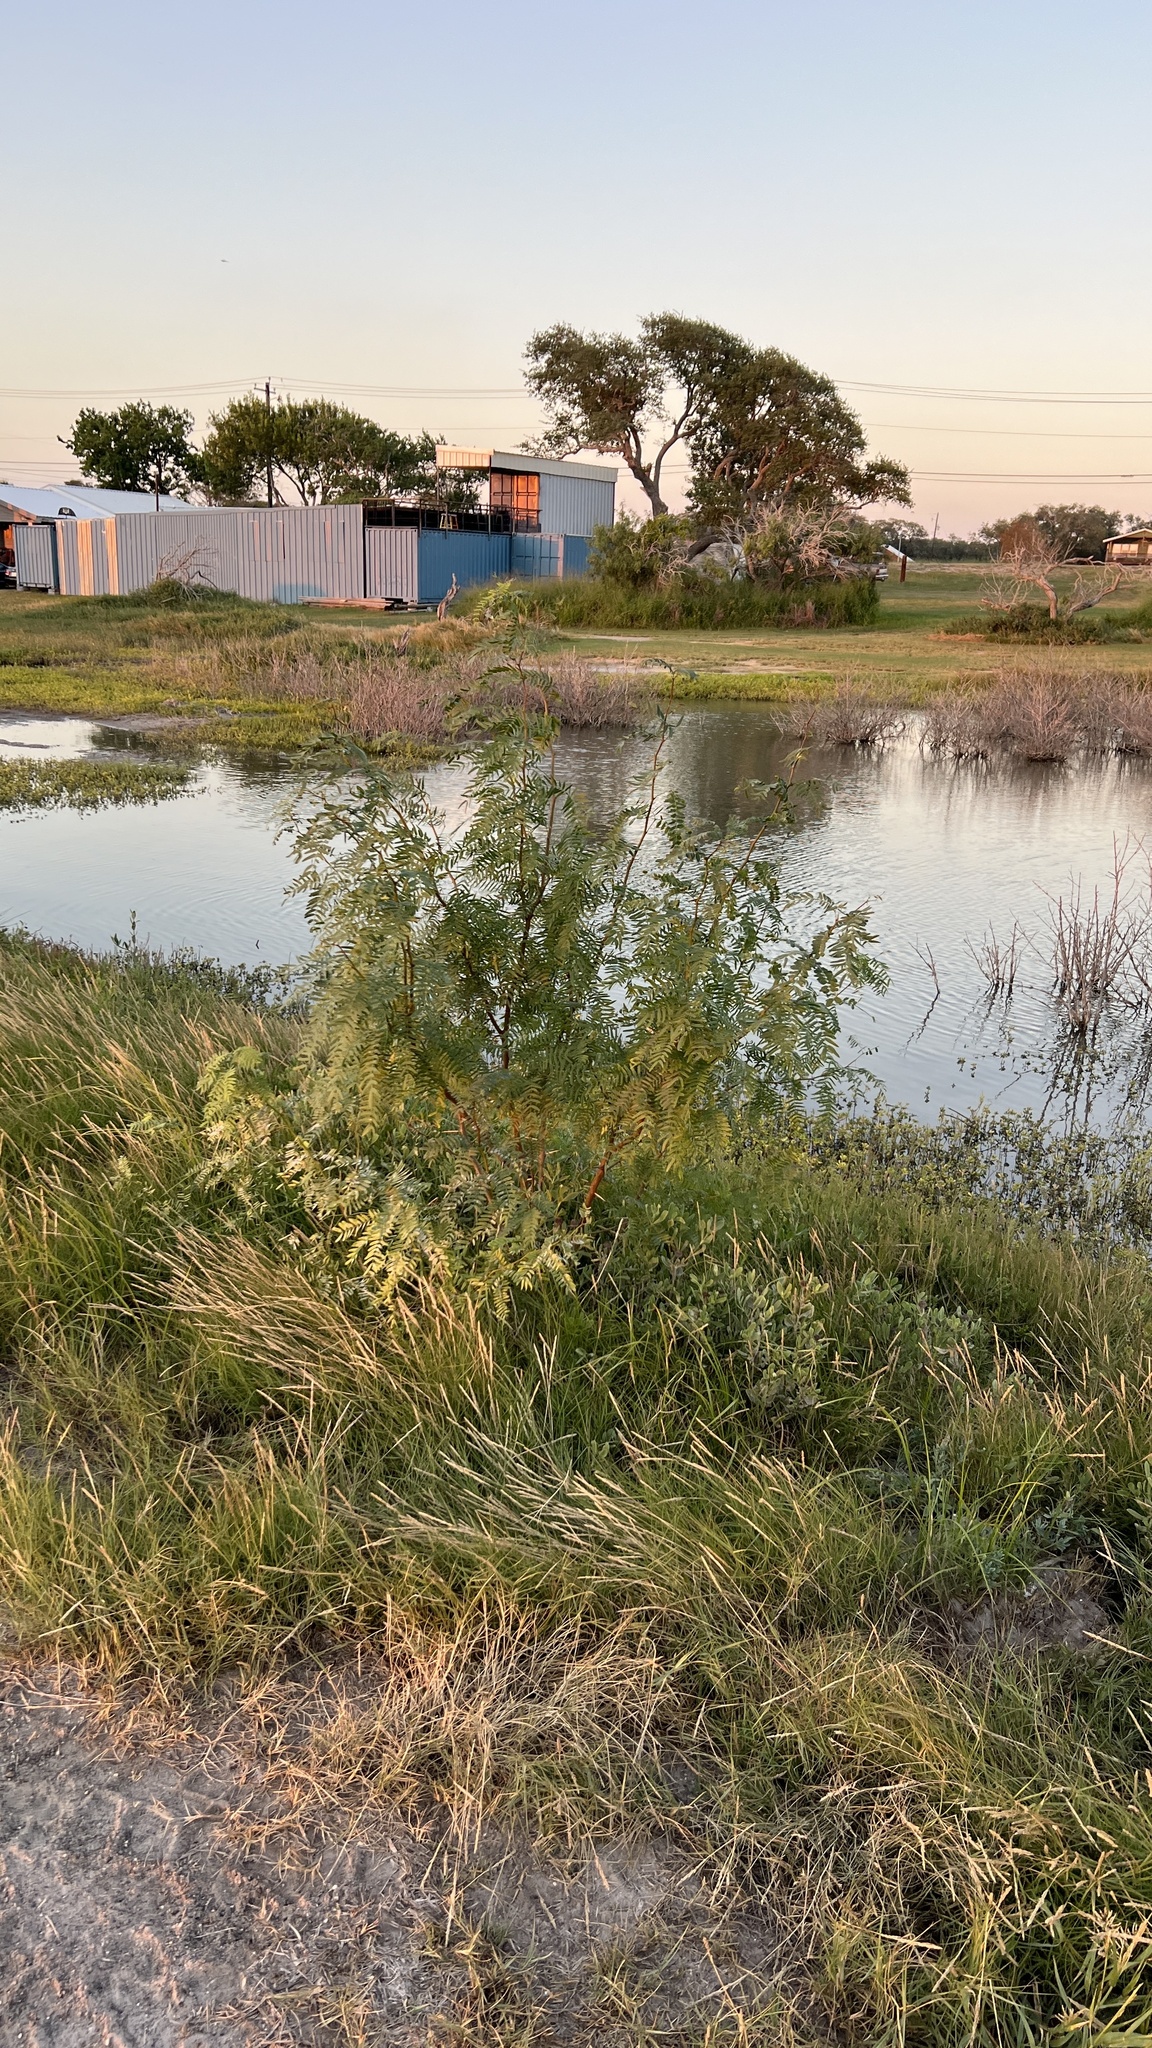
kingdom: Plantae
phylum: Tracheophyta
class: Magnoliopsida
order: Fabales
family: Fabaceae
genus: Prosopis
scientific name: Prosopis glandulosa
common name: Honey mesquite
